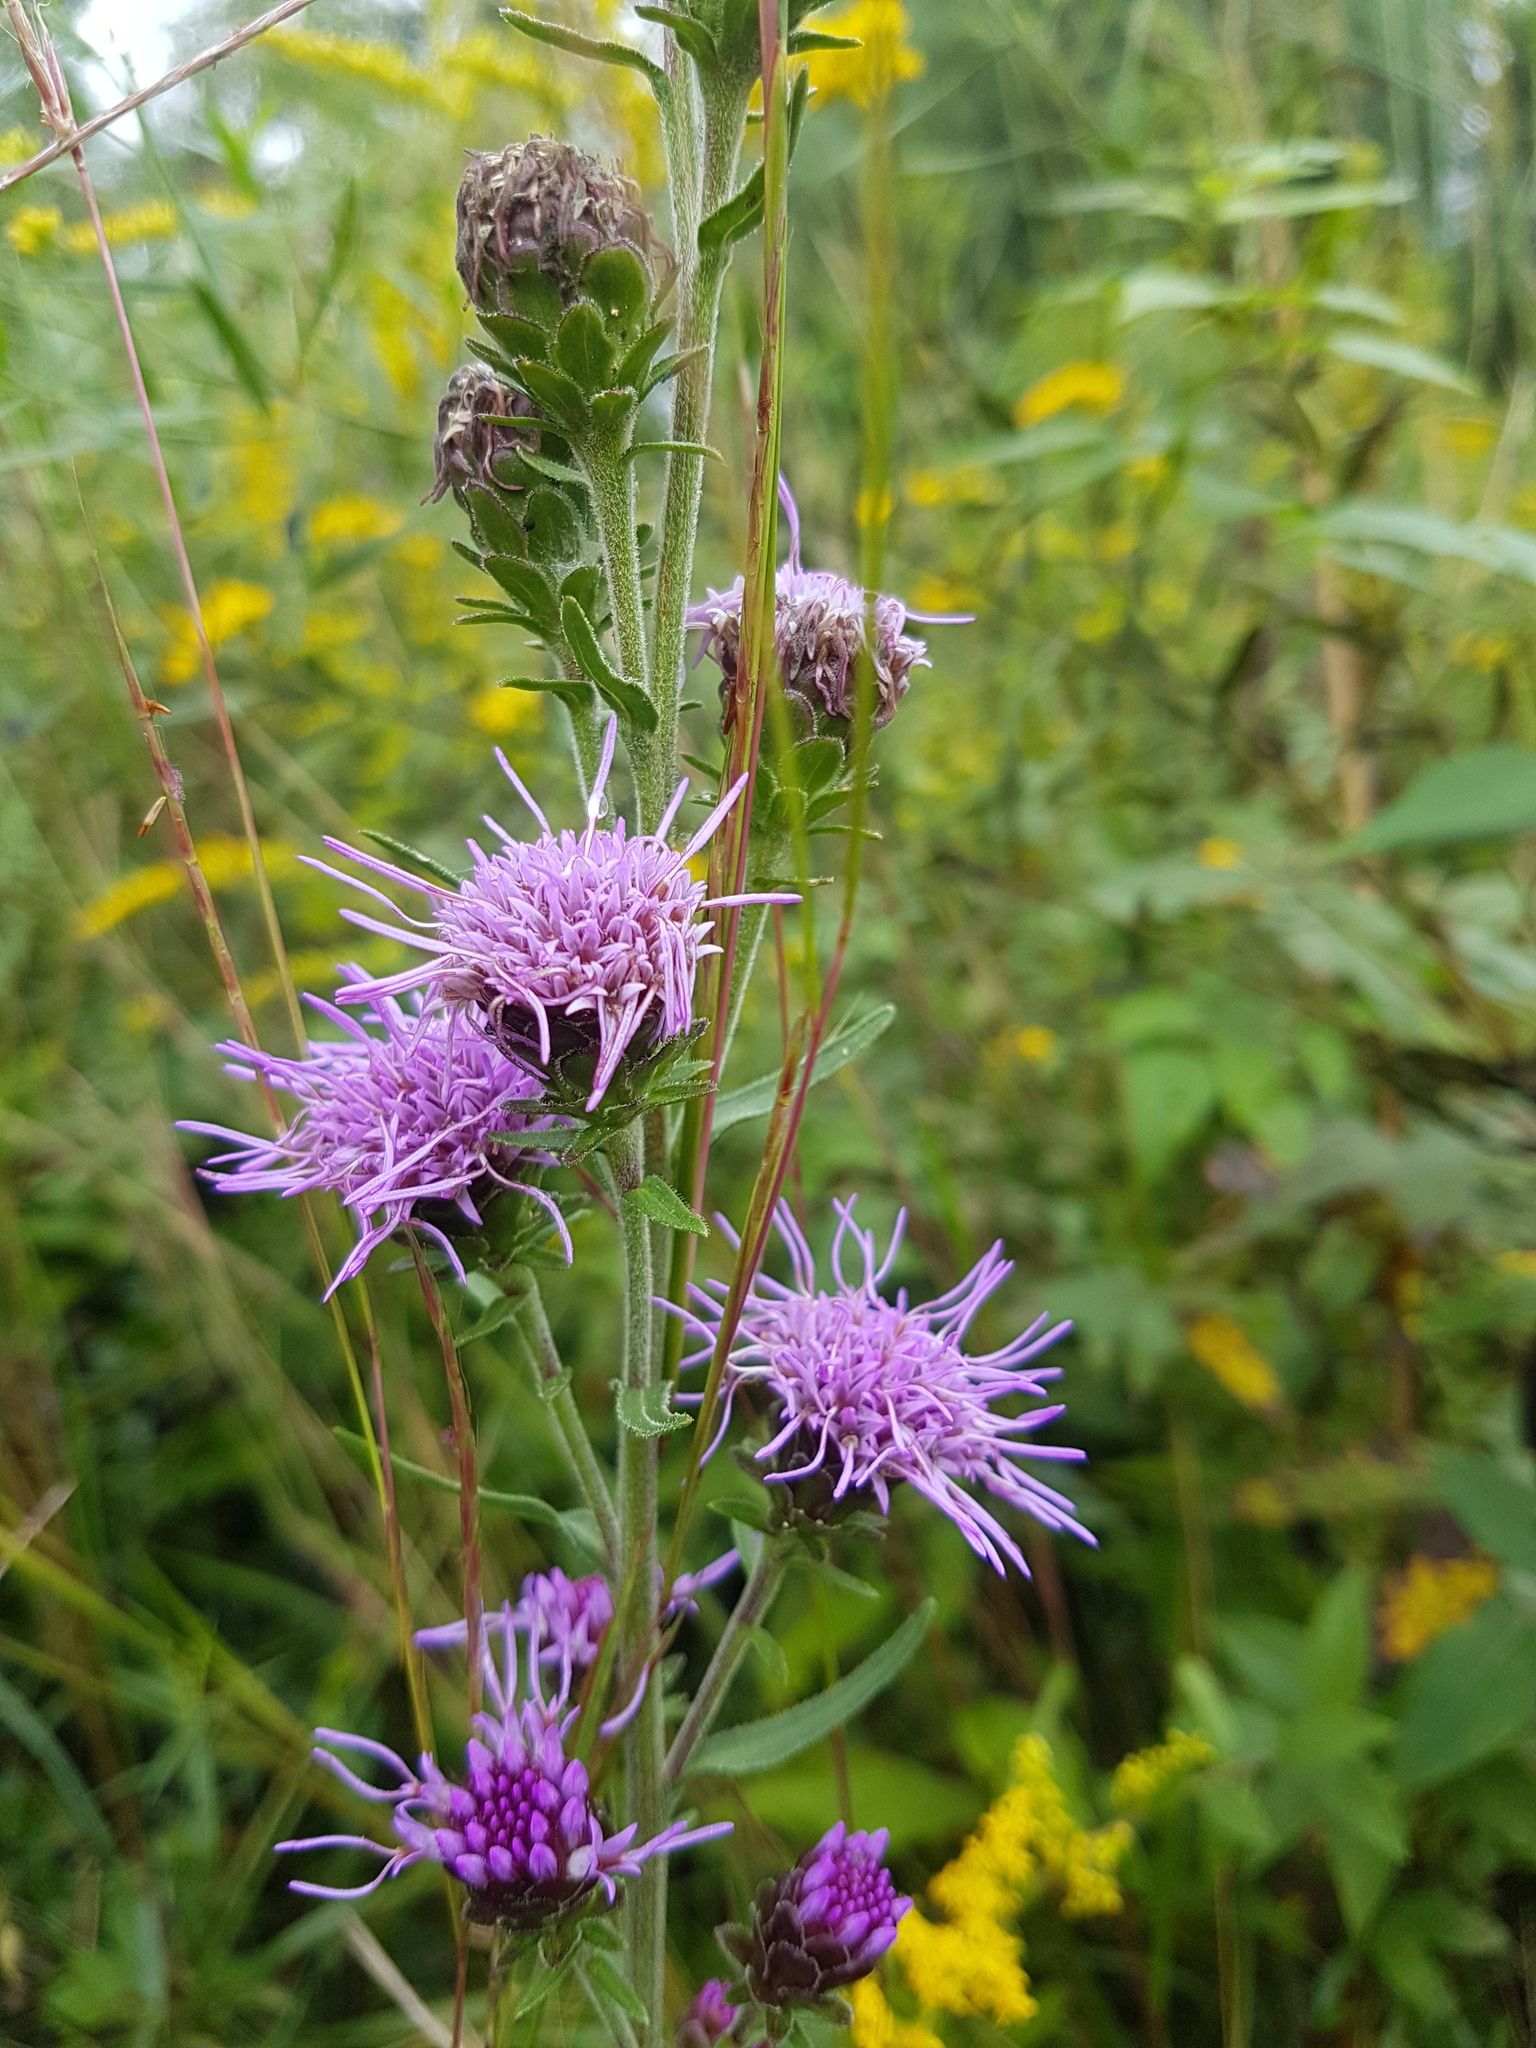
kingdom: Plantae
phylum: Tracheophyta
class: Magnoliopsida
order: Asterales
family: Asteraceae
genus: Liatris
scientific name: Liatris scariosa
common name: Northern gayfeather
